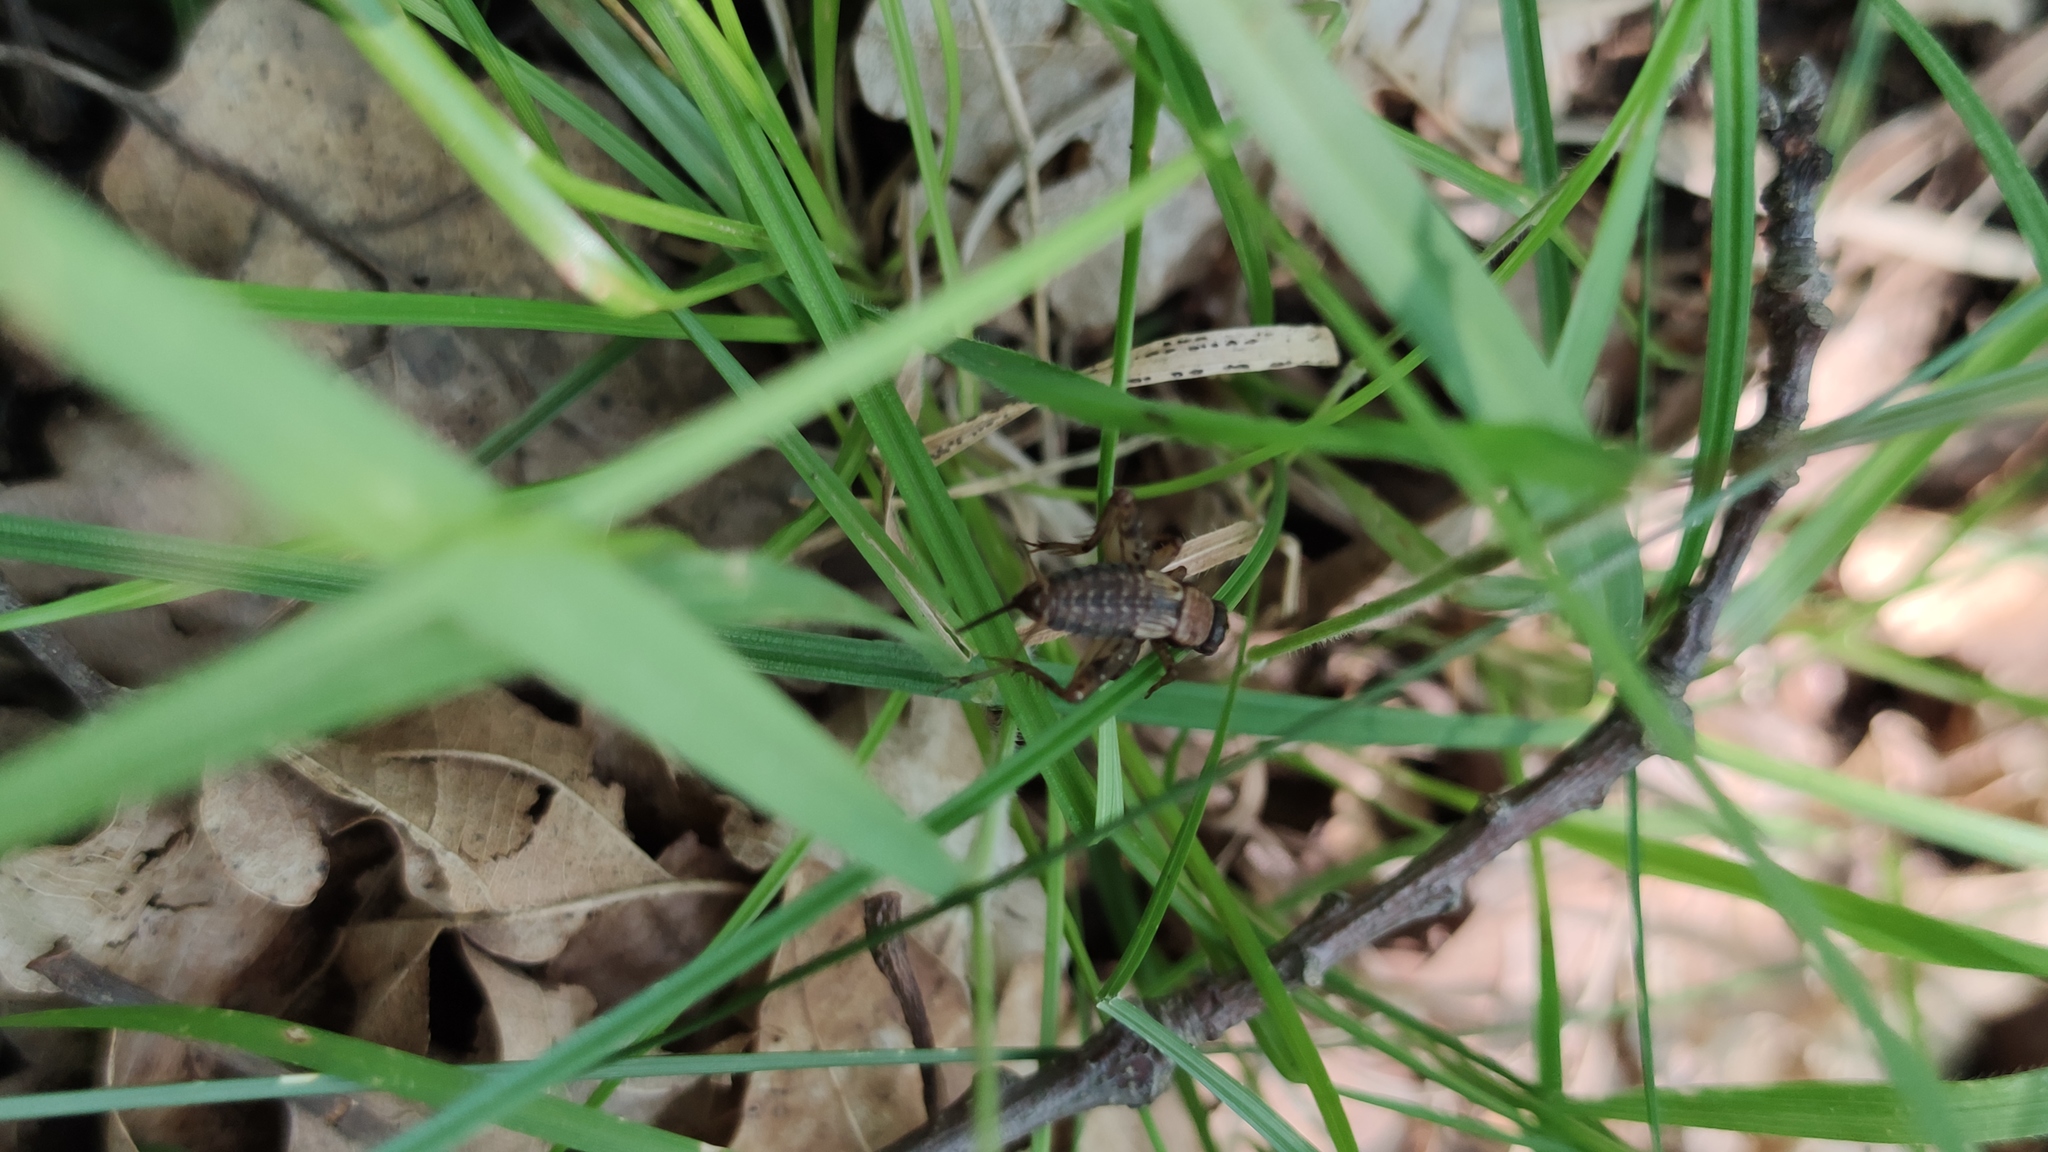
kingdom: Animalia
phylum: Arthropoda
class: Insecta
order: Orthoptera
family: Trigonidiidae
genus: Nemobius
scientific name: Nemobius sylvestris
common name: Wood-cricket
